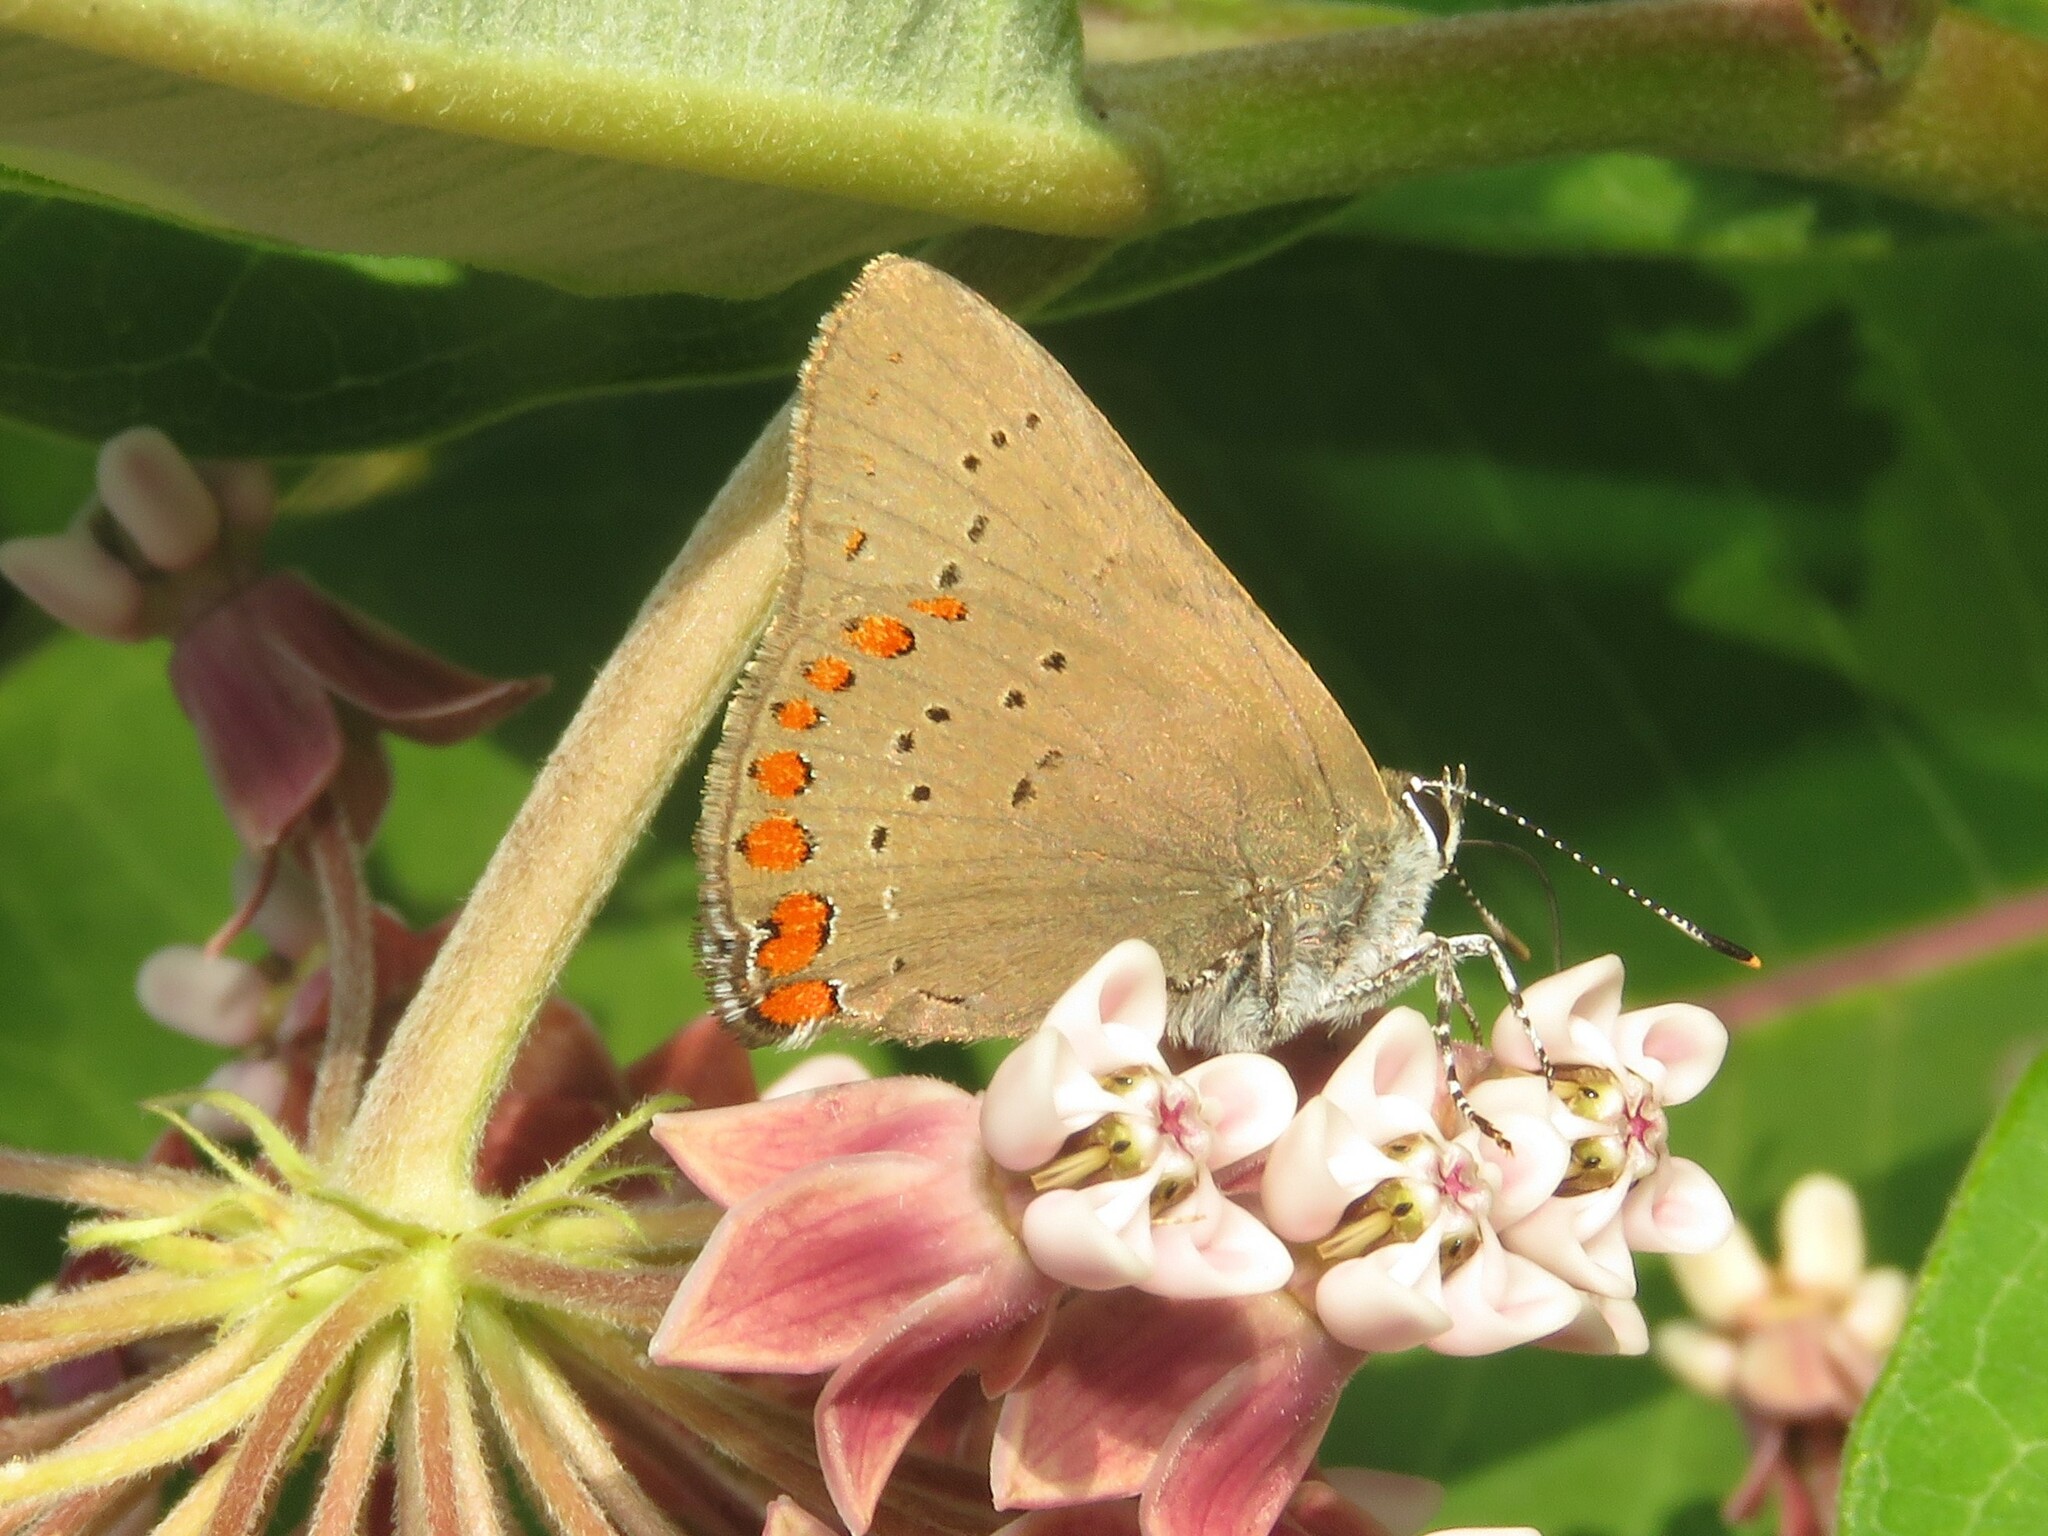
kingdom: Animalia
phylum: Arthropoda
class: Insecta
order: Lepidoptera
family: Lycaenidae
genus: Harkenclenus
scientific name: Harkenclenus titus
